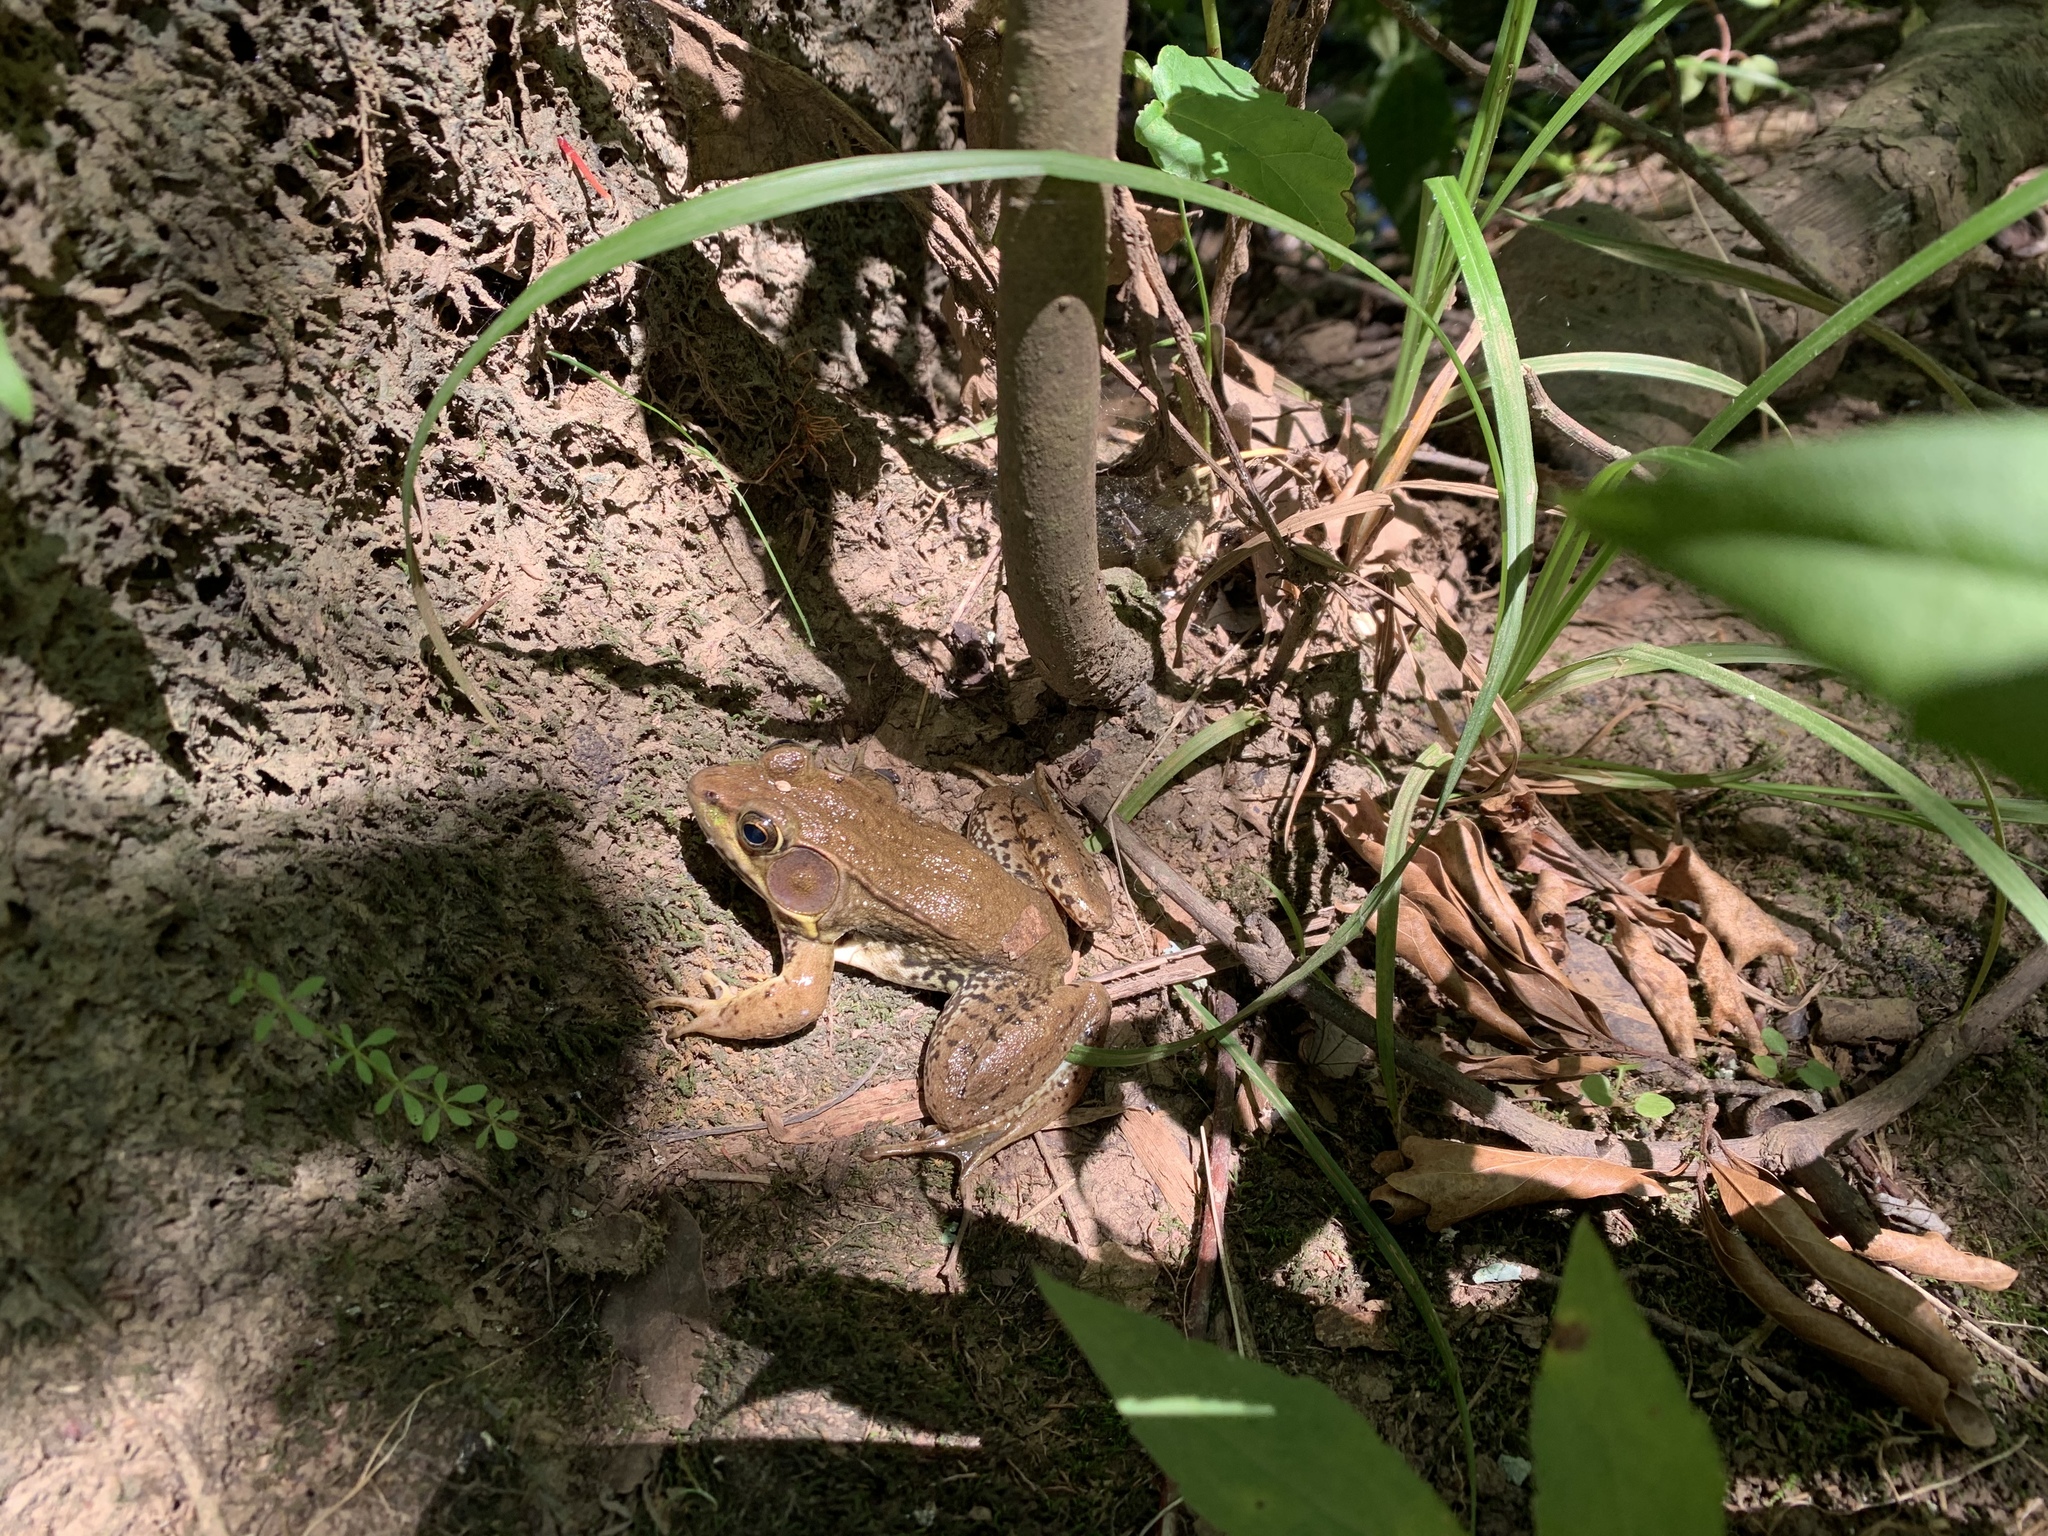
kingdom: Animalia
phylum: Chordata
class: Amphibia
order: Anura
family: Ranidae
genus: Lithobates
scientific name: Lithobates clamitans
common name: Green frog
